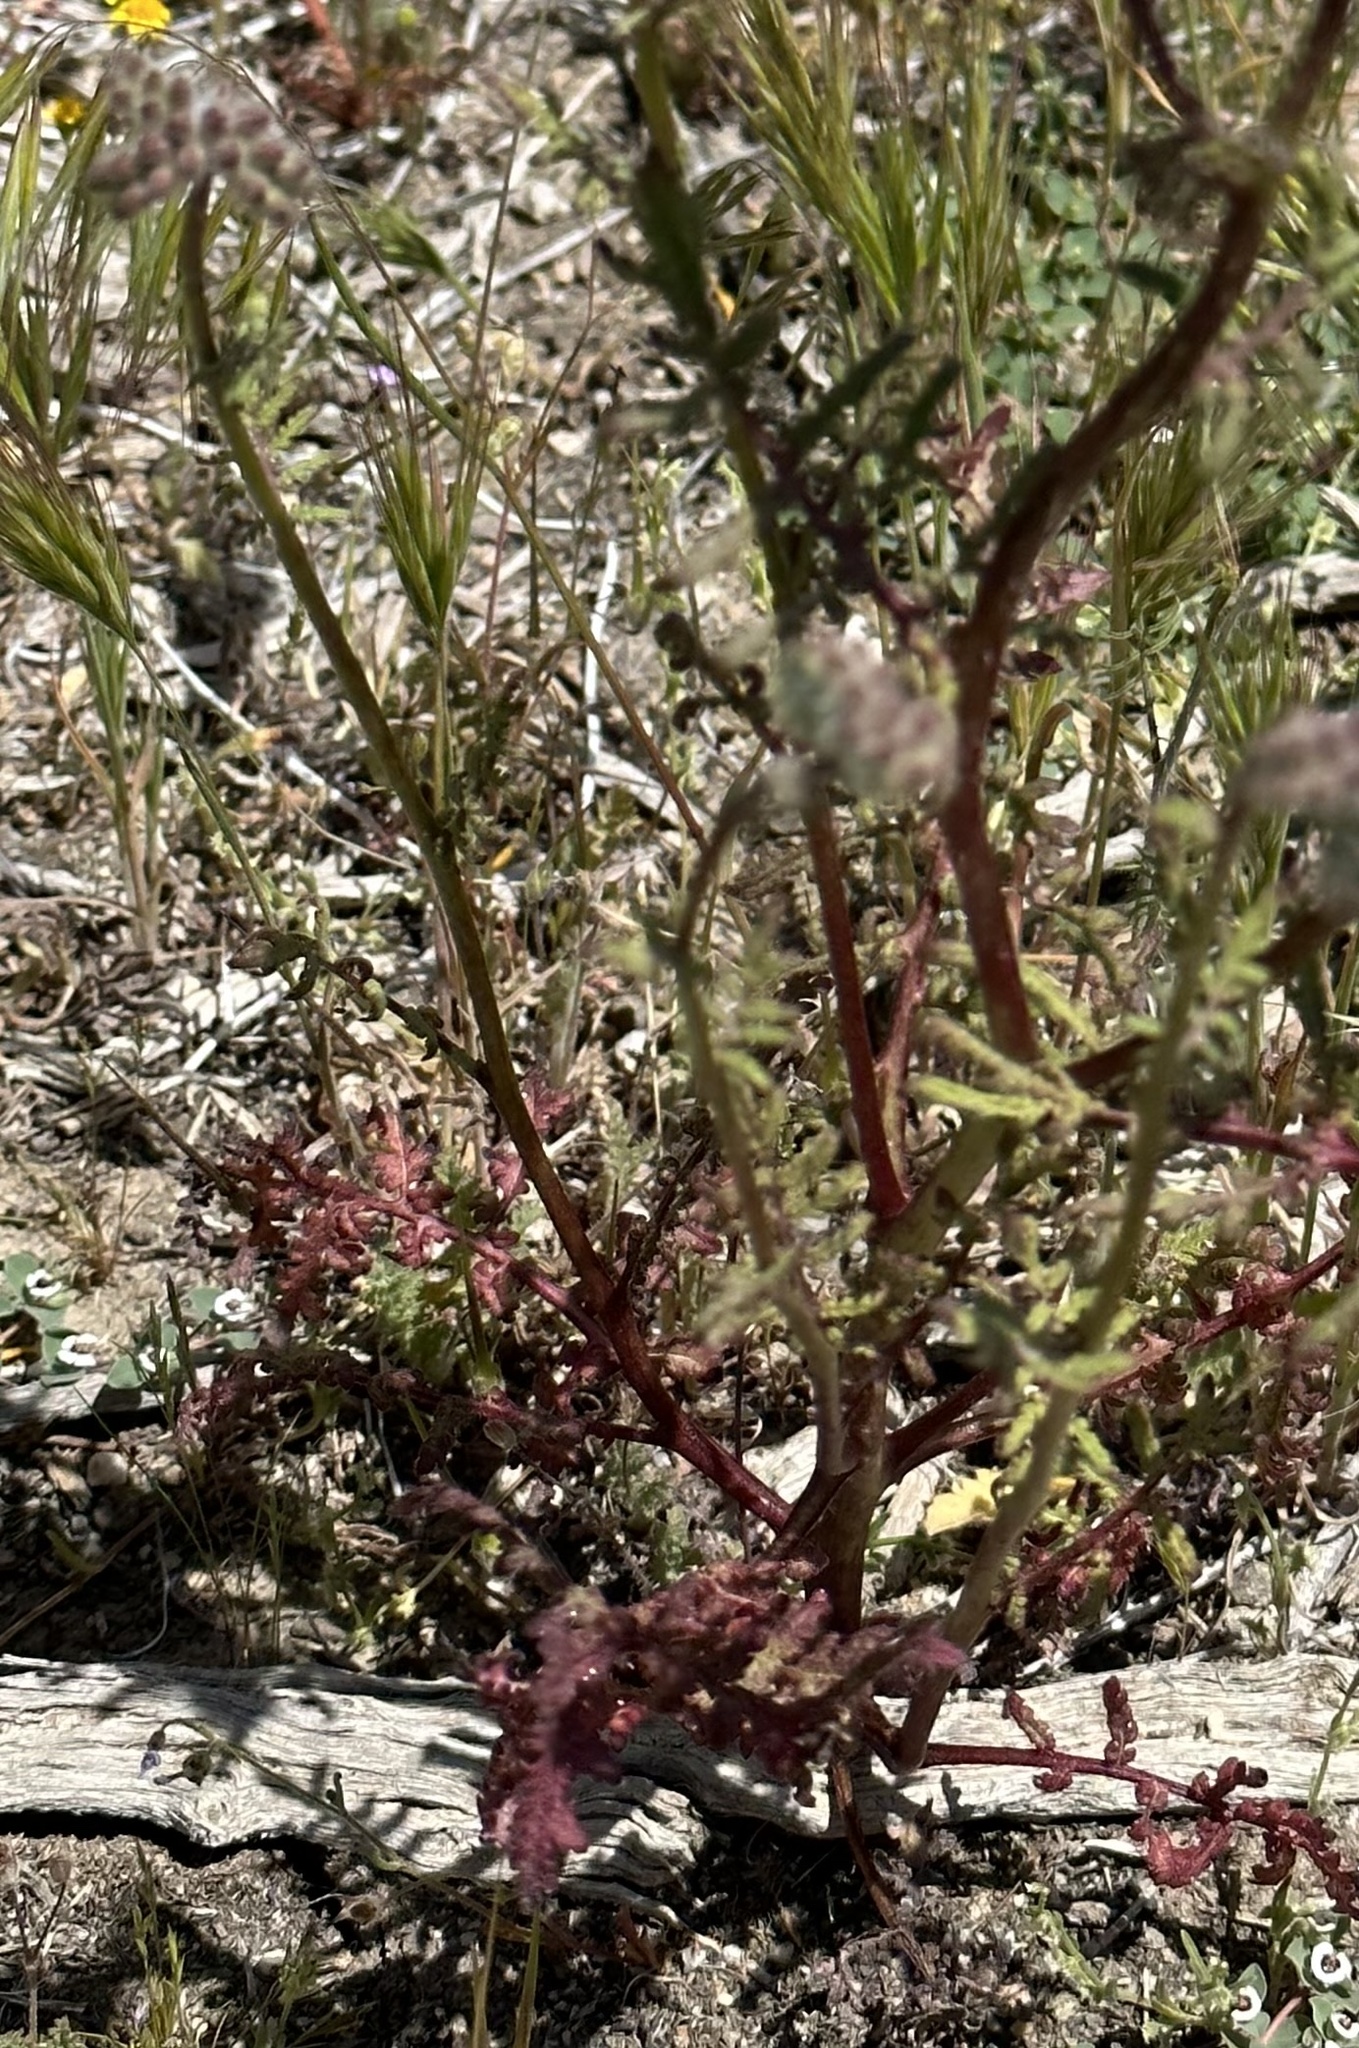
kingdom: Plantae
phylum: Tracheophyta
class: Magnoliopsida
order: Boraginales
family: Hydrophyllaceae
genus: Phacelia
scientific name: Phacelia tanacetifolia
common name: Phacelia
